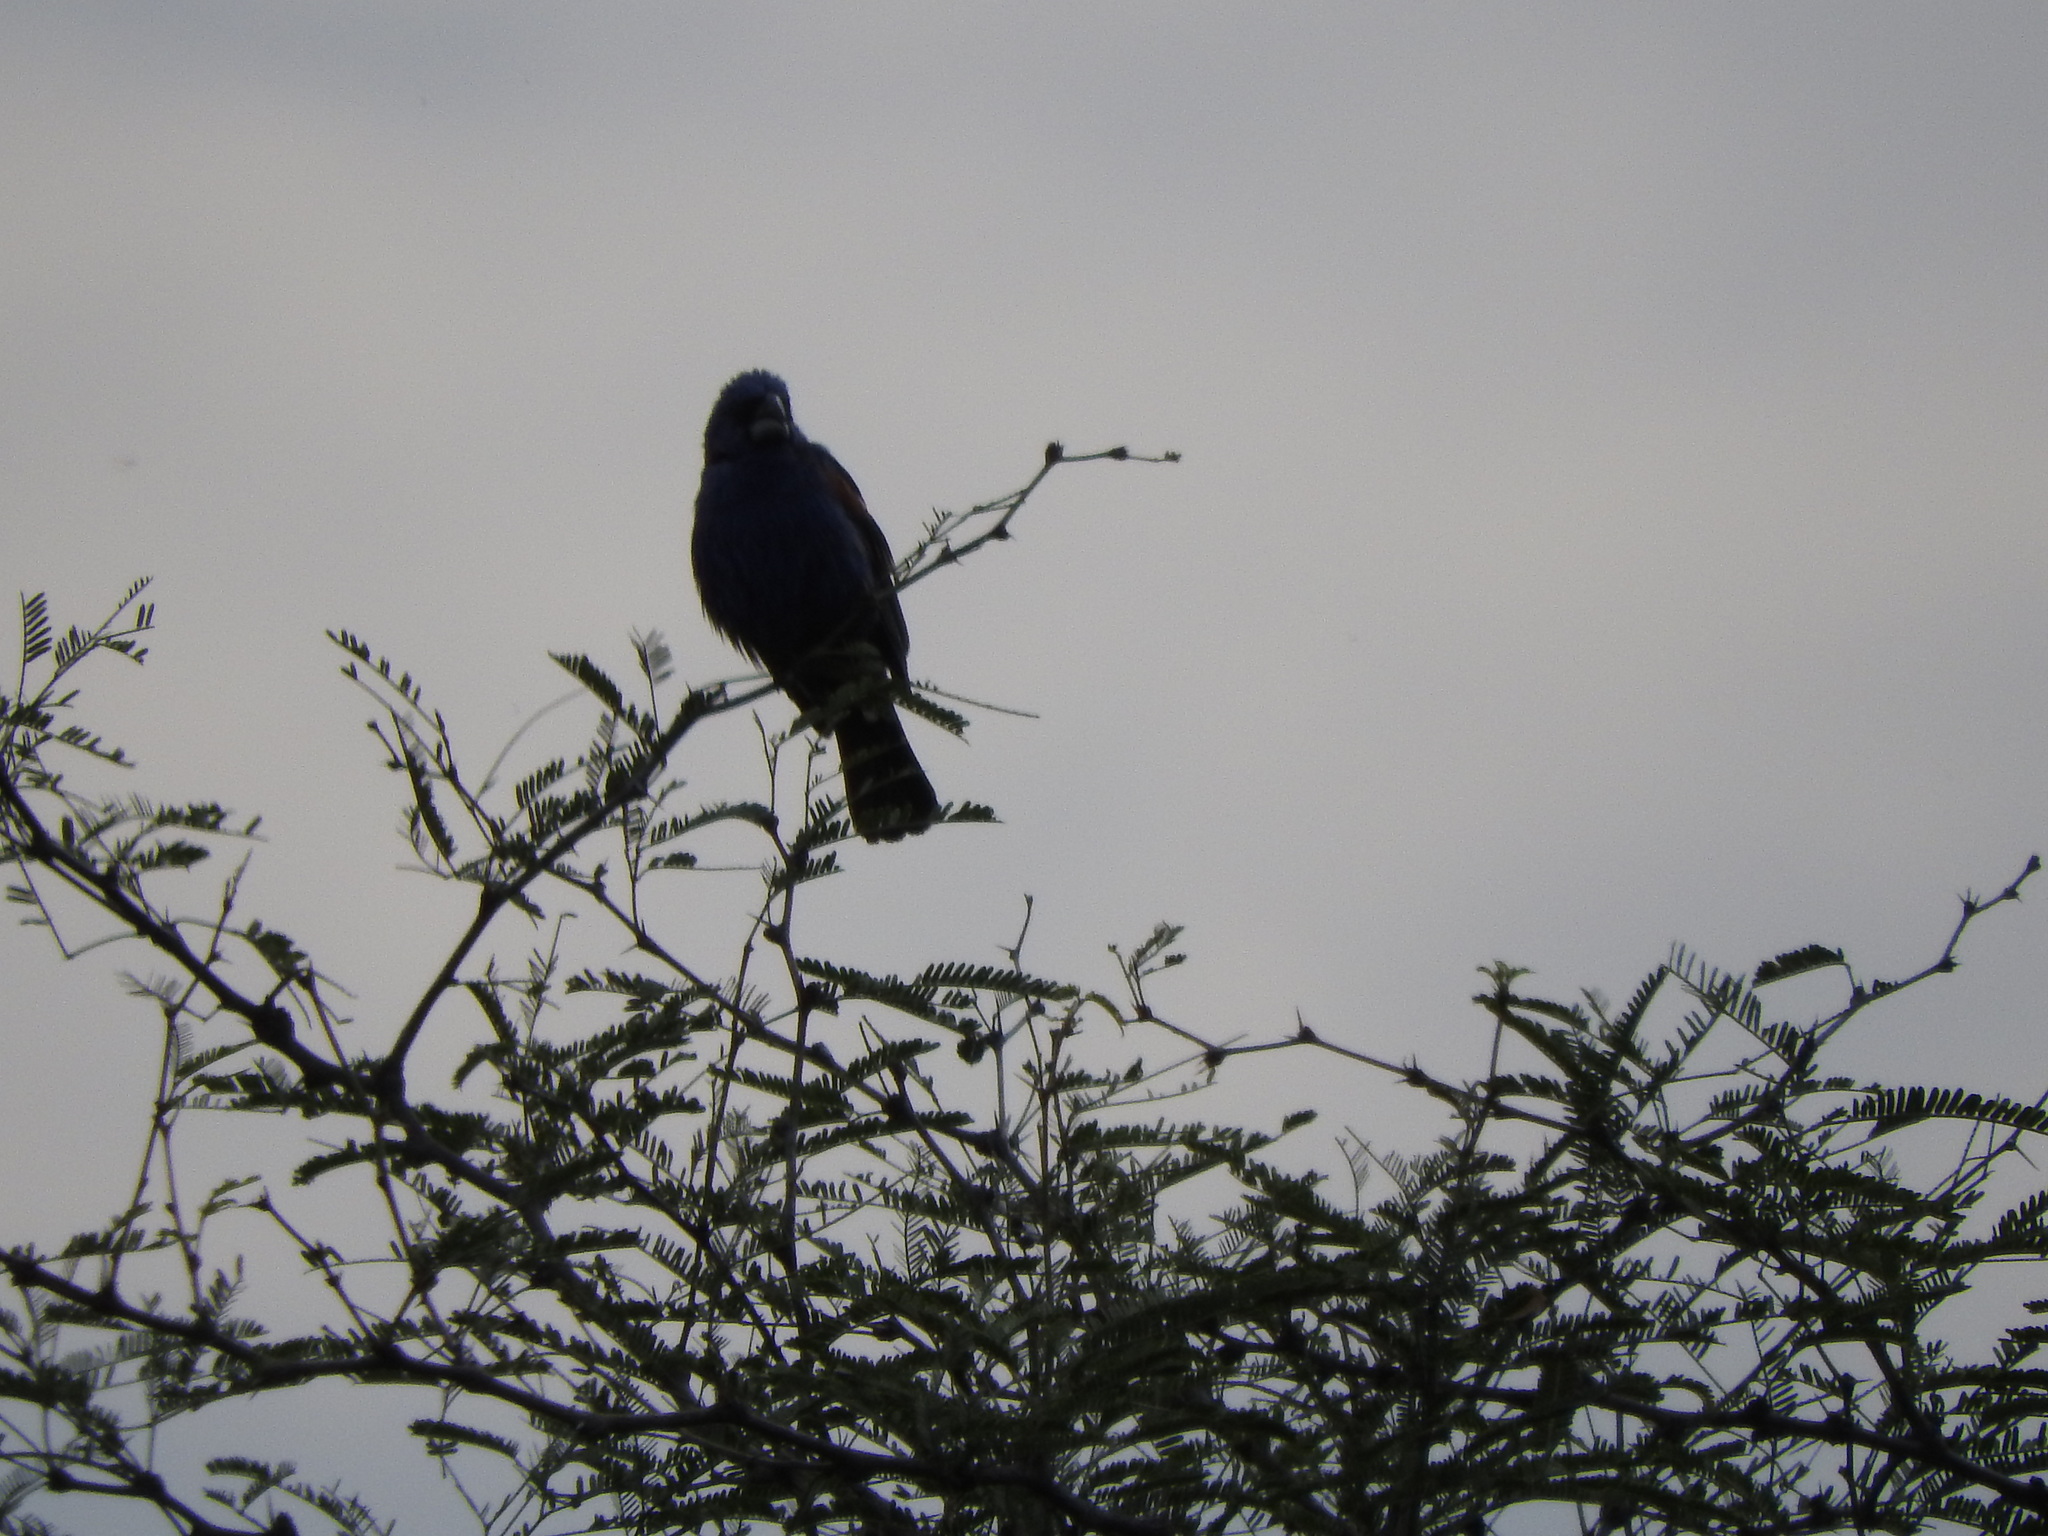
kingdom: Animalia
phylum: Chordata
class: Aves
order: Passeriformes
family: Cardinalidae
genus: Passerina
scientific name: Passerina caerulea
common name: Blue grosbeak
